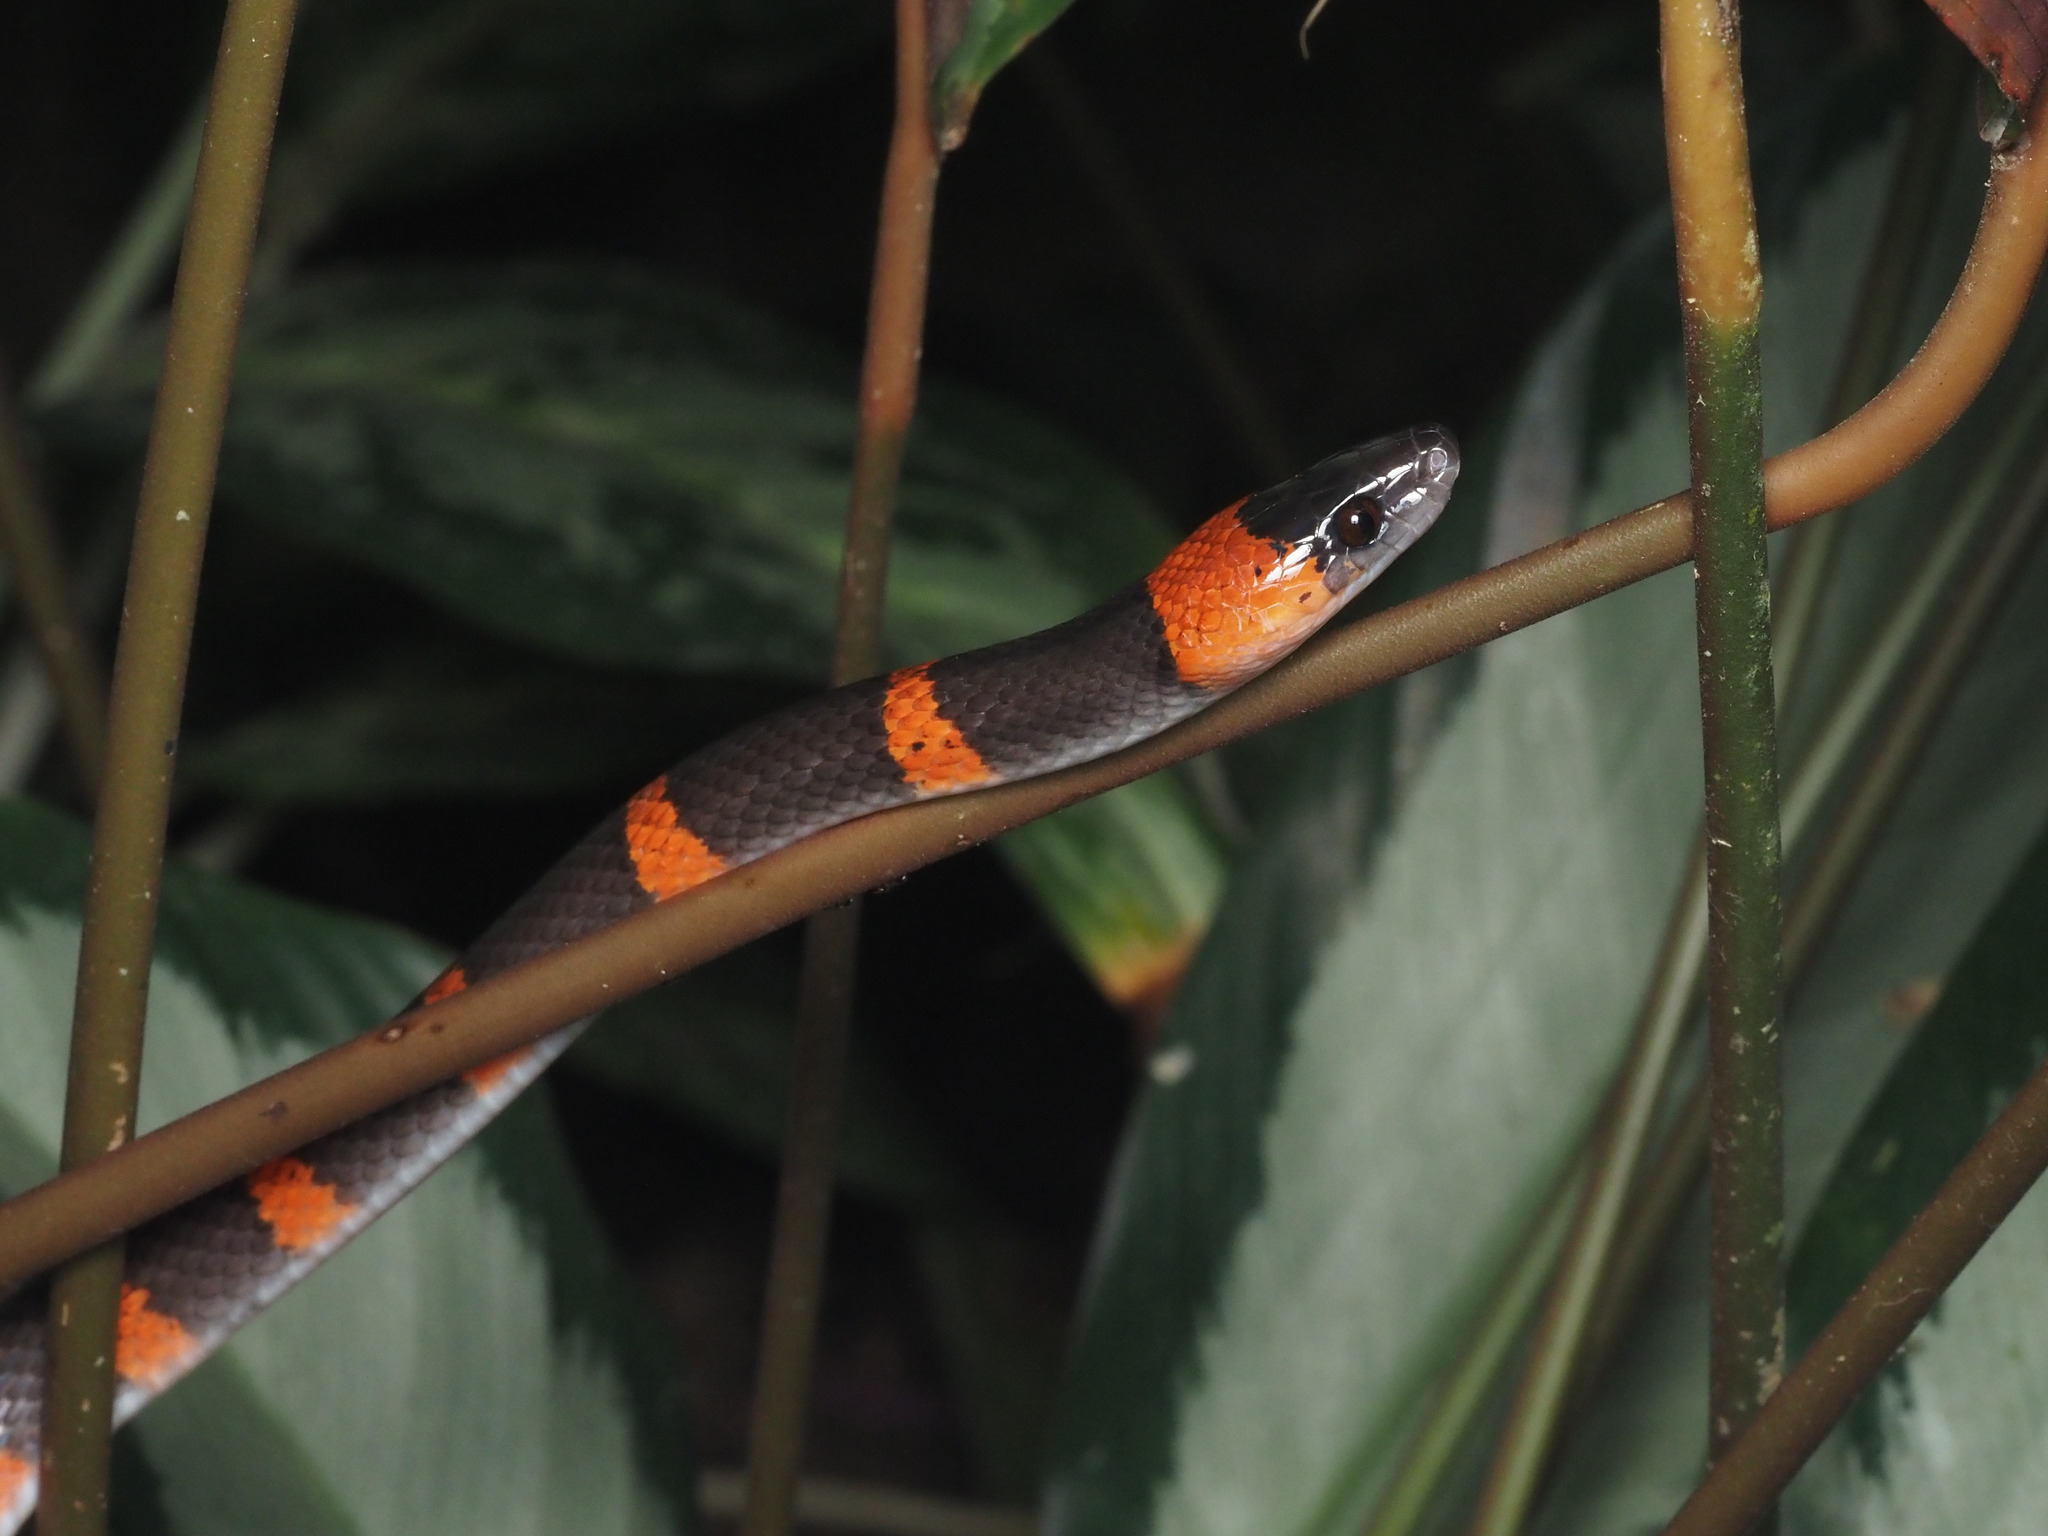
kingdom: Animalia
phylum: Chordata
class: Squamata
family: Colubridae
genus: Oxyrhopus
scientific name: Oxyrhopus petolarius
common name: Forest flame snake
